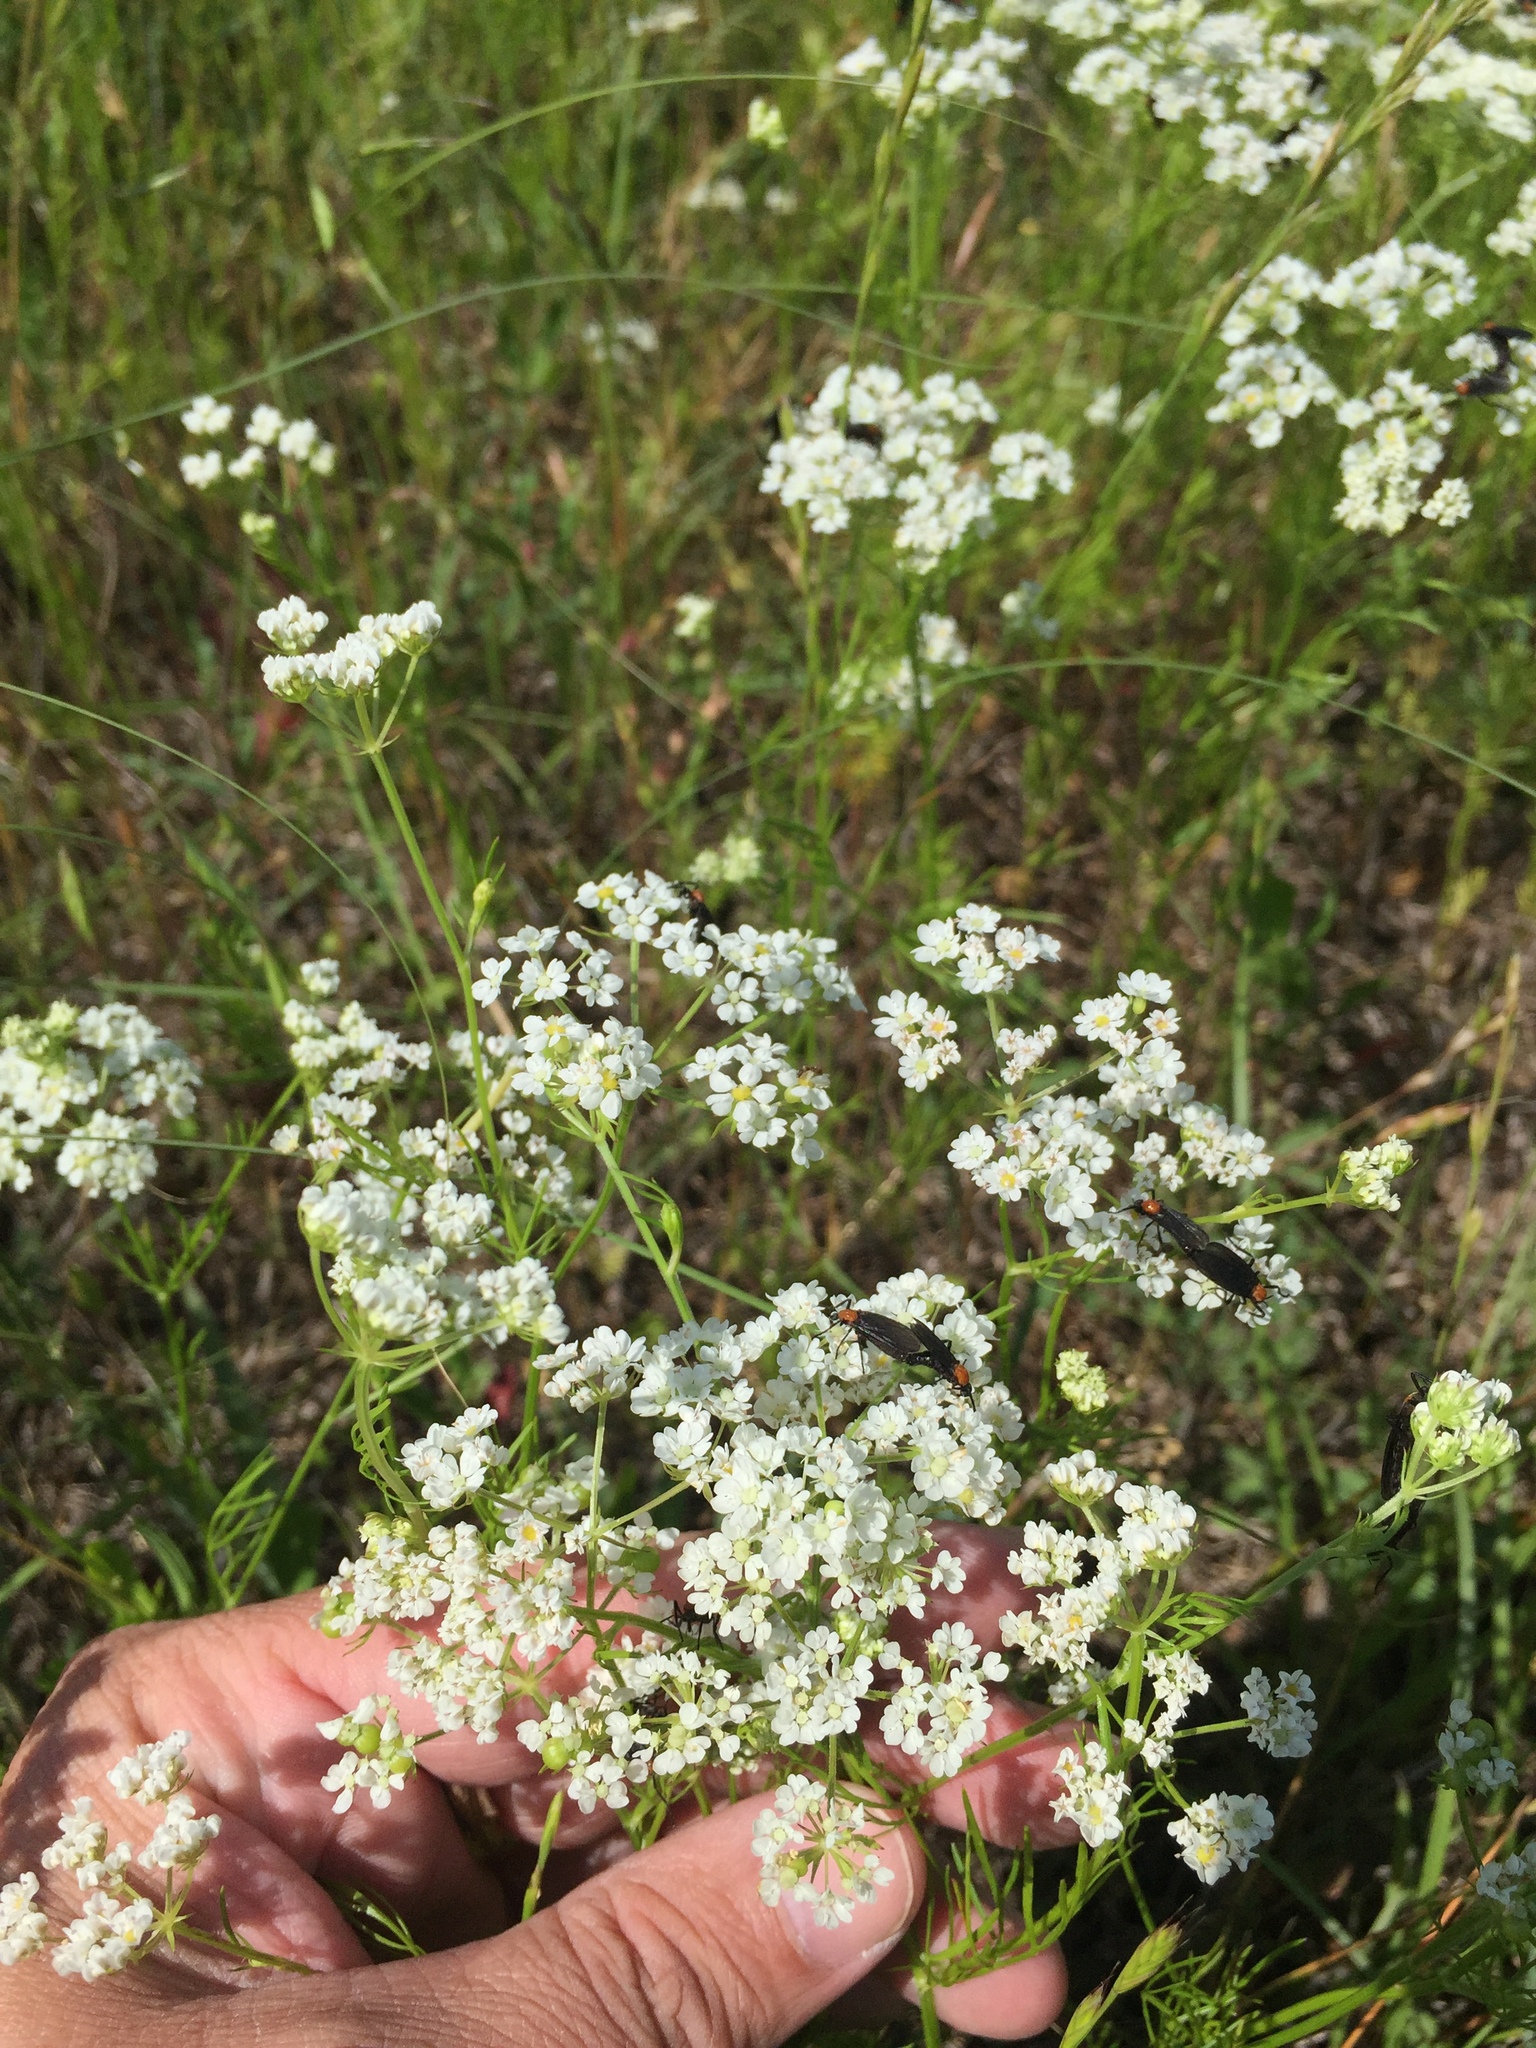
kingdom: Plantae
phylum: Tracheophyta
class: Magnoliopsida
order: Apiales
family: Apiaceae
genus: Atrema
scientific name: Atrema americanum
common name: Prairie-bishop
